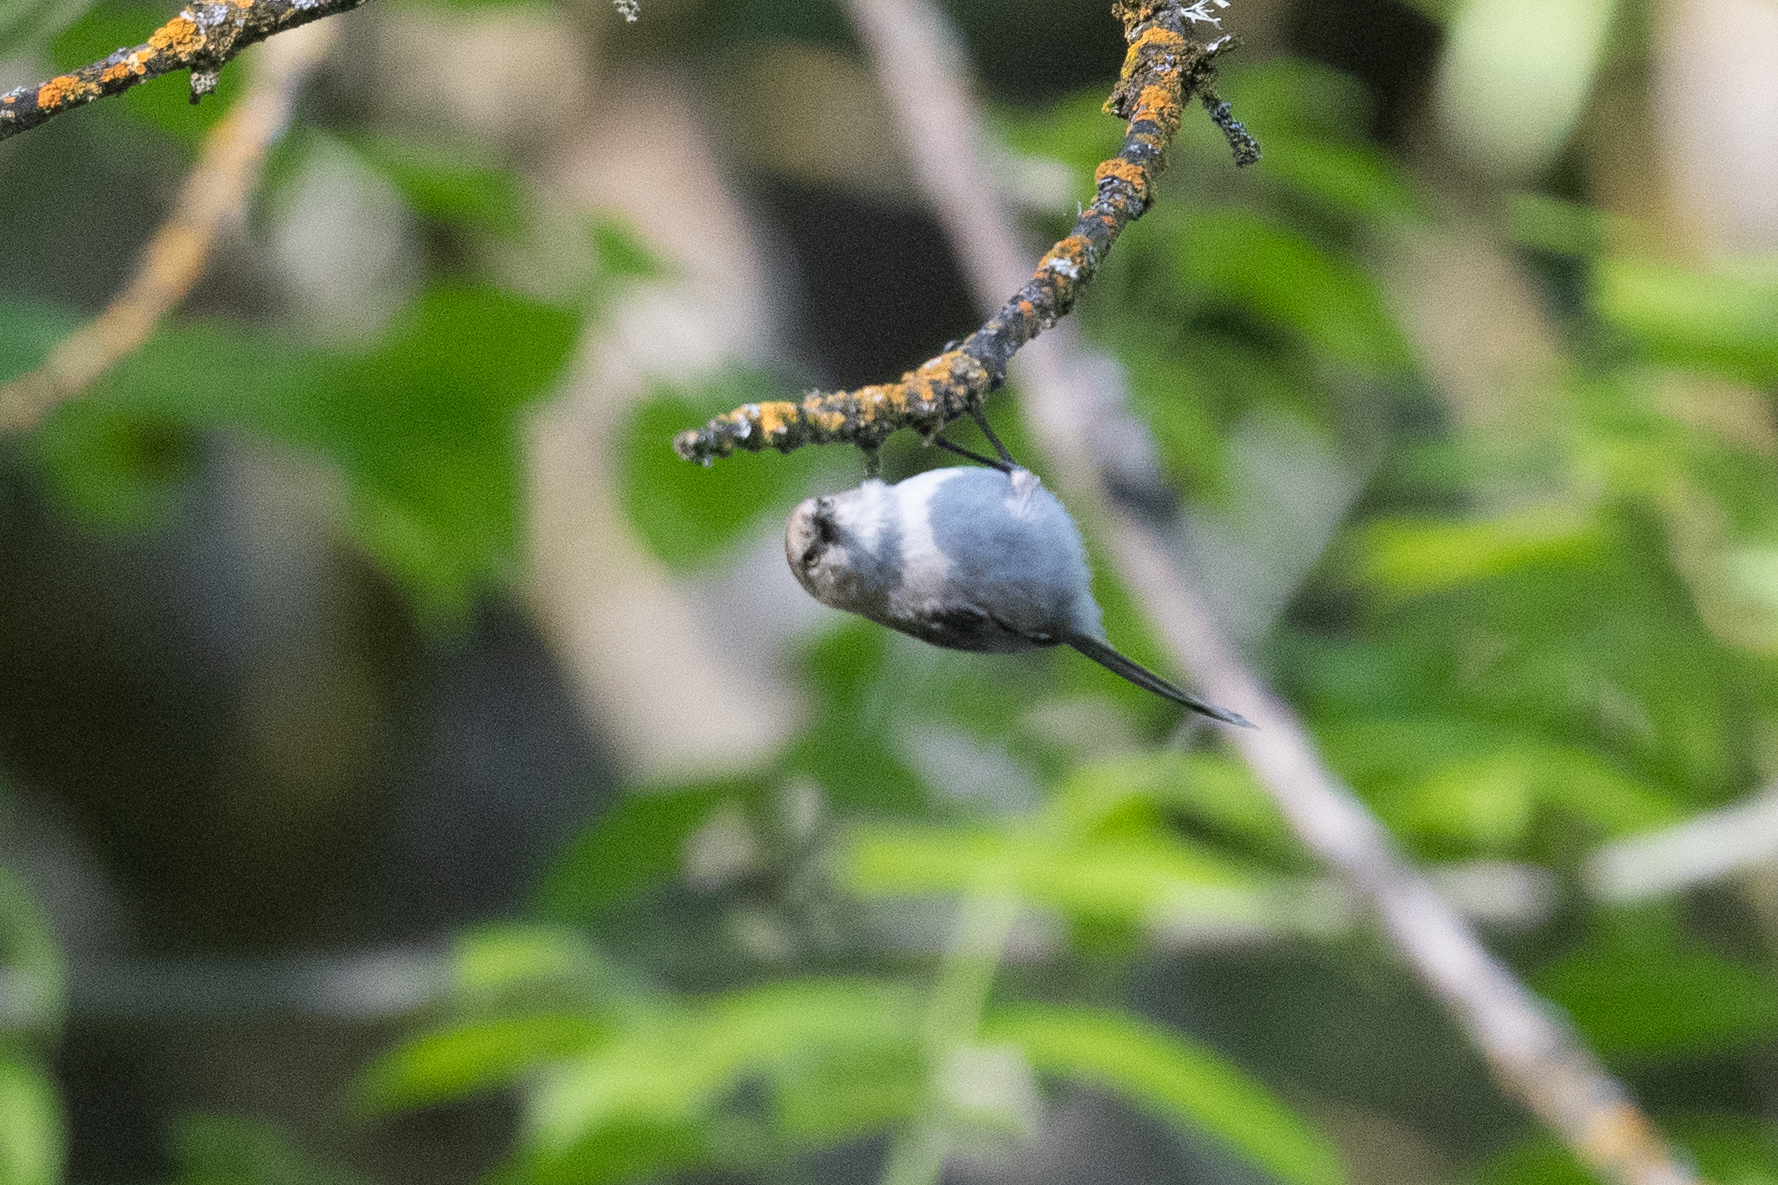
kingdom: Animalia
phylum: Chordata
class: Aves
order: Passeriformes
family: Aegithalidae
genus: Psaltriparus
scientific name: Psaltriparus minimus
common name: American bushtit
